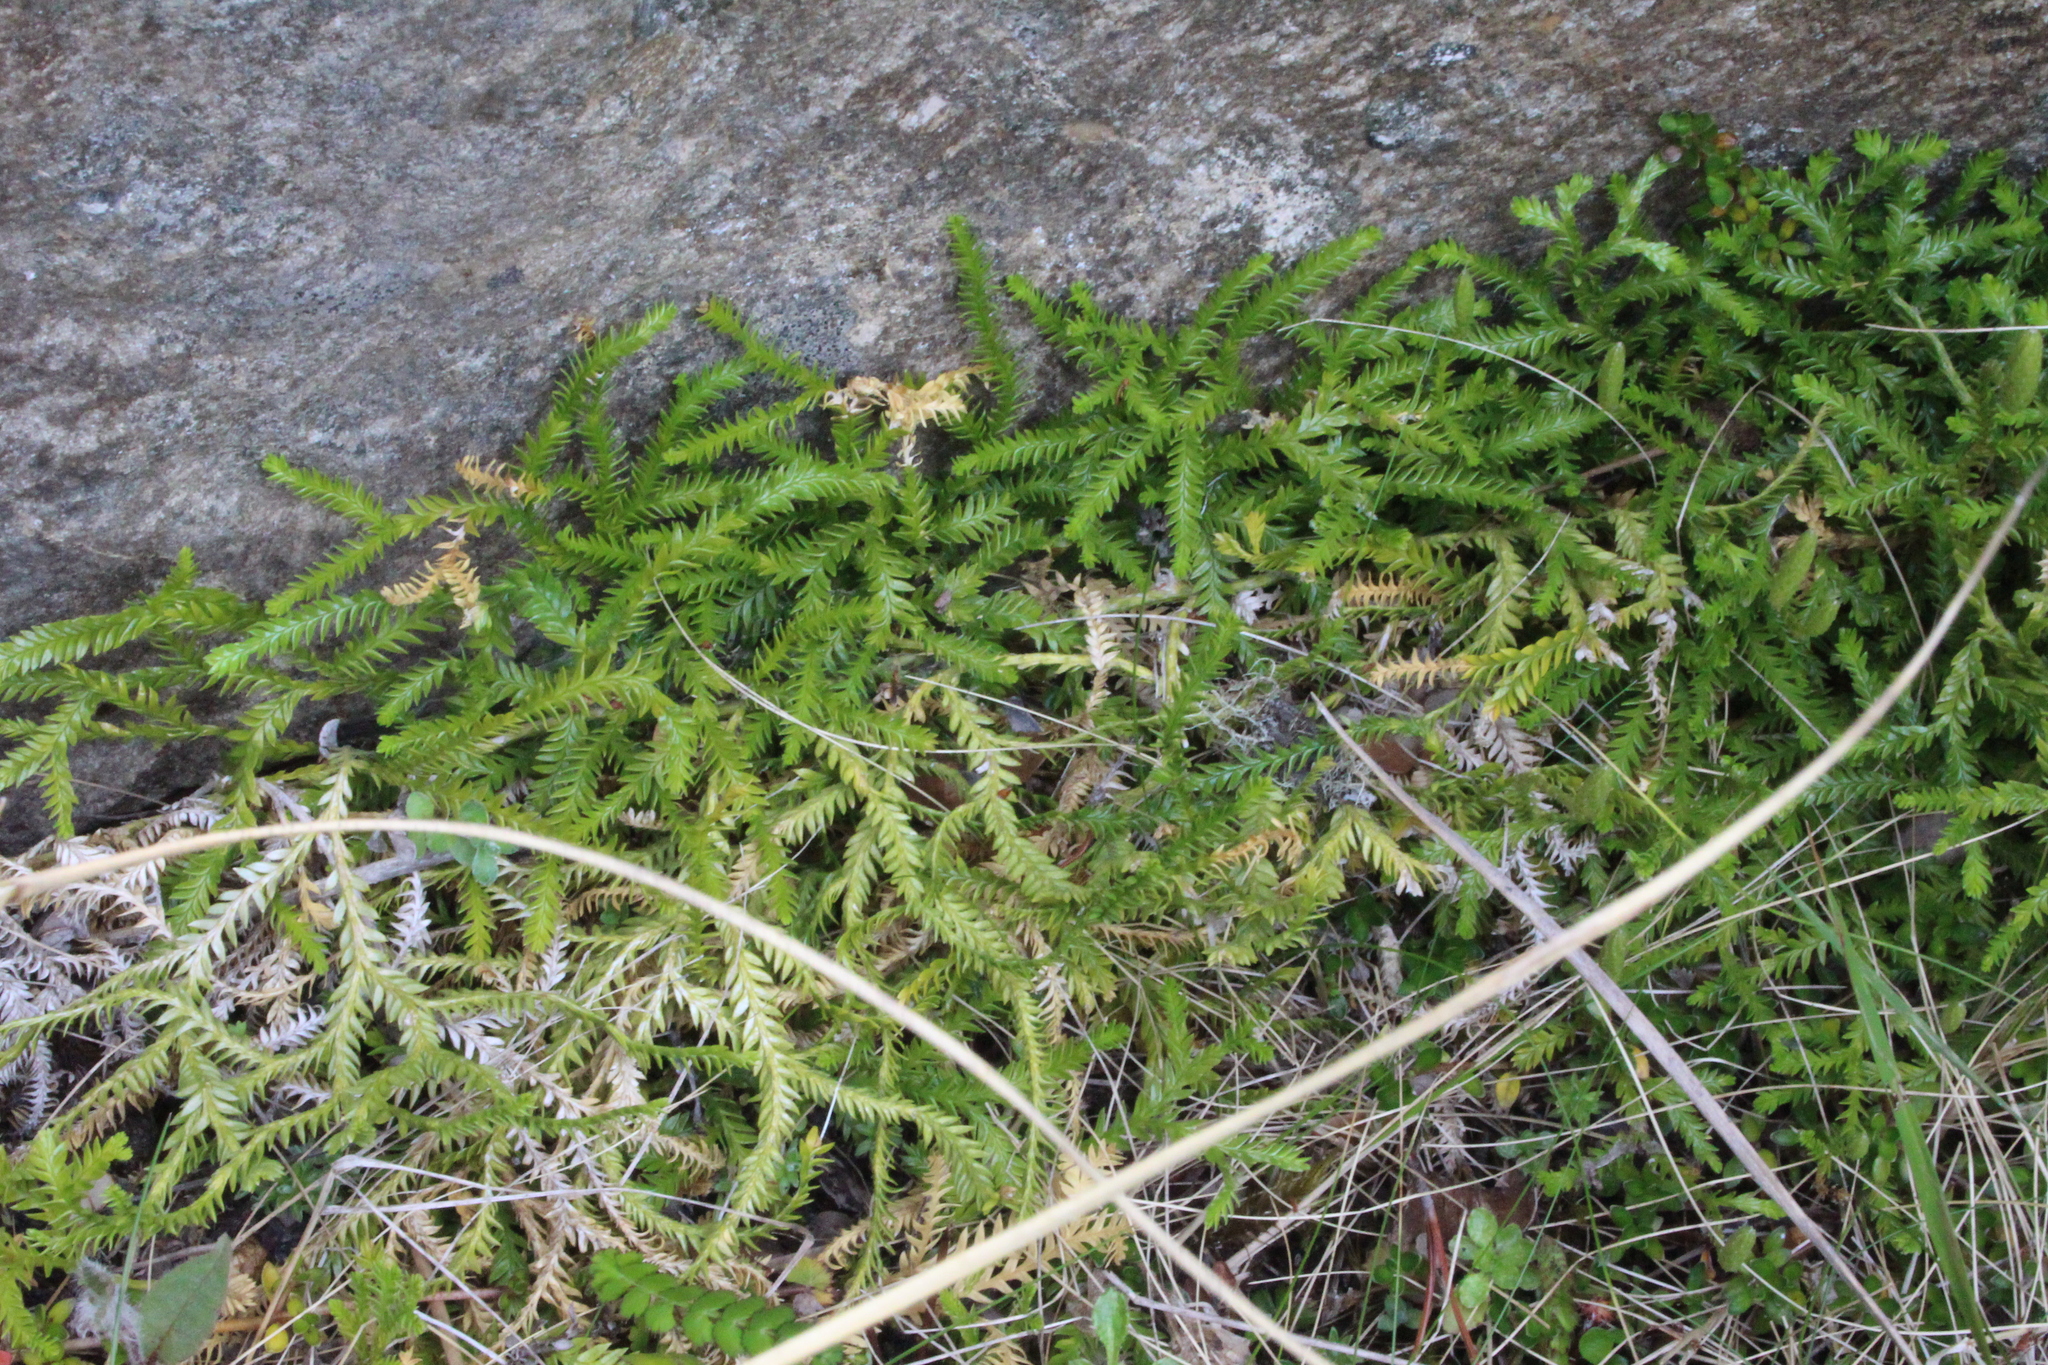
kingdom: Plantae
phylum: Tracheophyta
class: Lycopodiopsida
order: Lycopodiales
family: Lycopodiaceae
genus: Diphasium
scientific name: Diphasium scariosum
